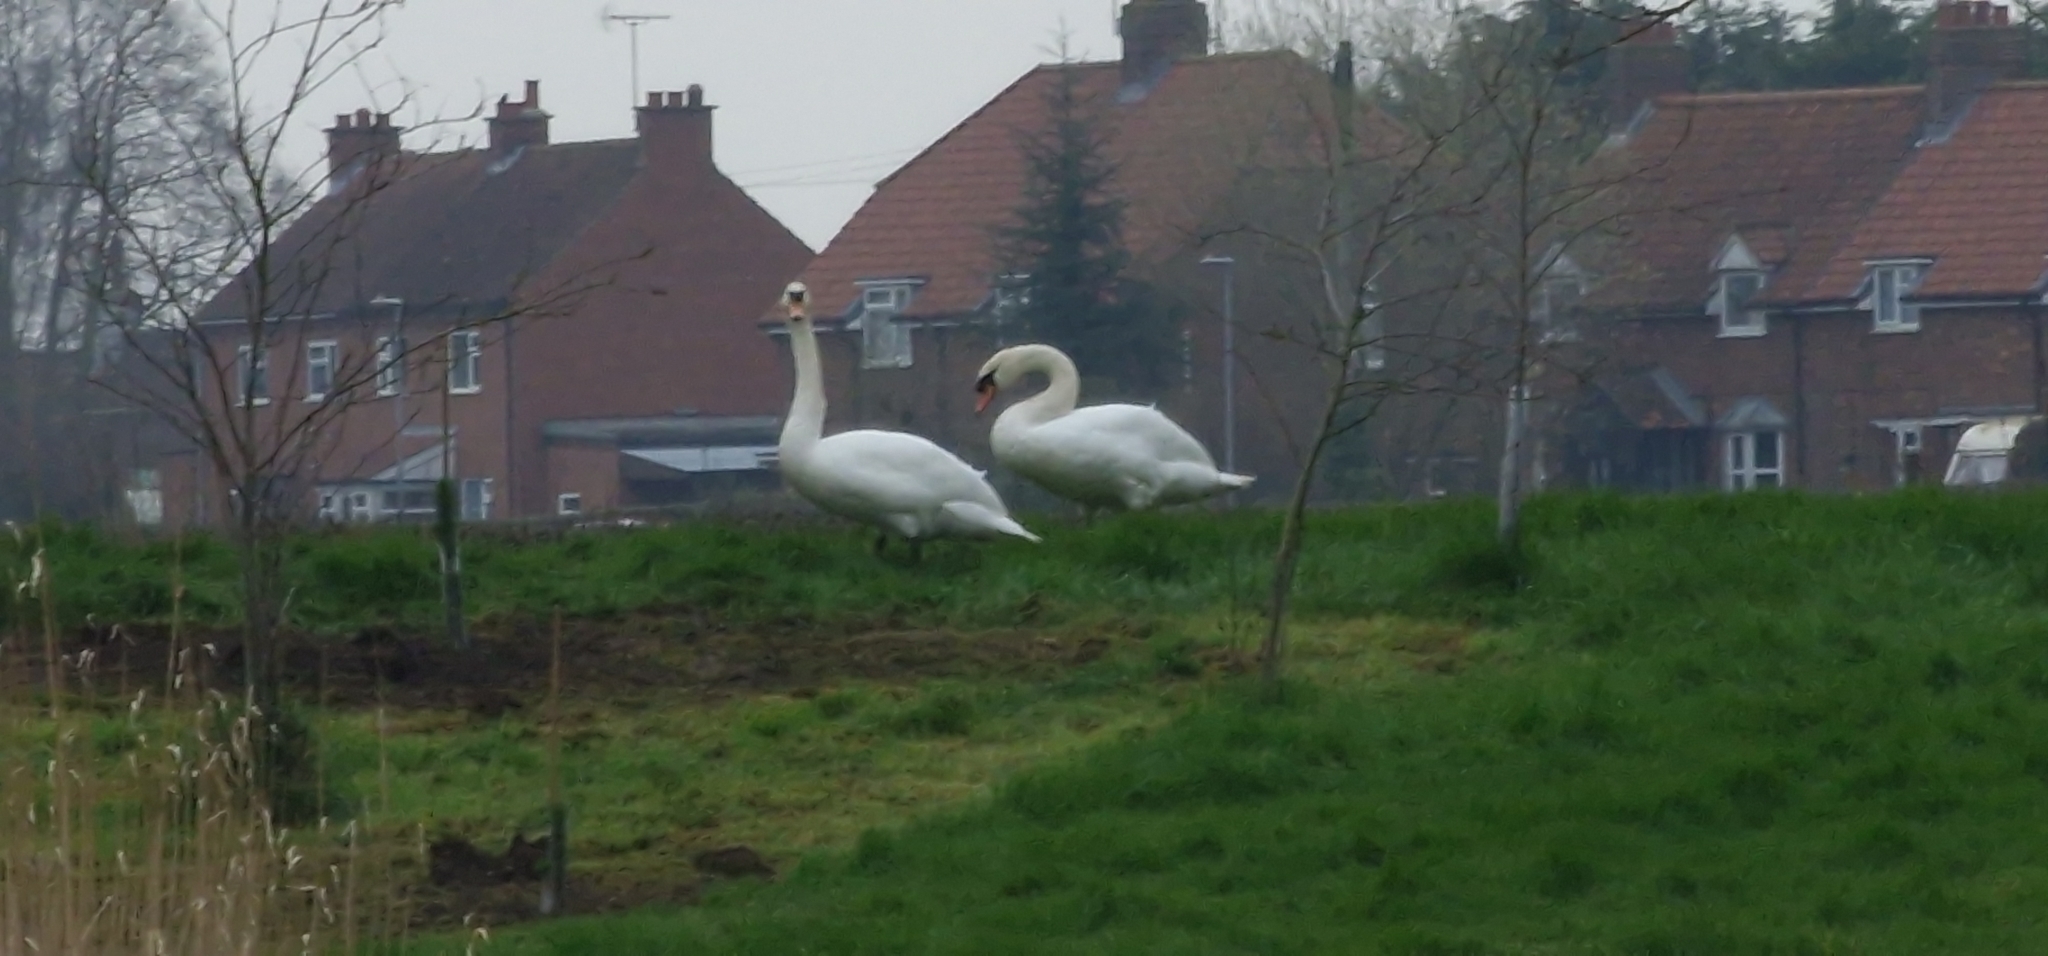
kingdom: Animalia
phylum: Chordata
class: Aves
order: Anseriformes
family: Anatidae
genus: Cygnus
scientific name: Cygnus olor
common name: Mute swan
